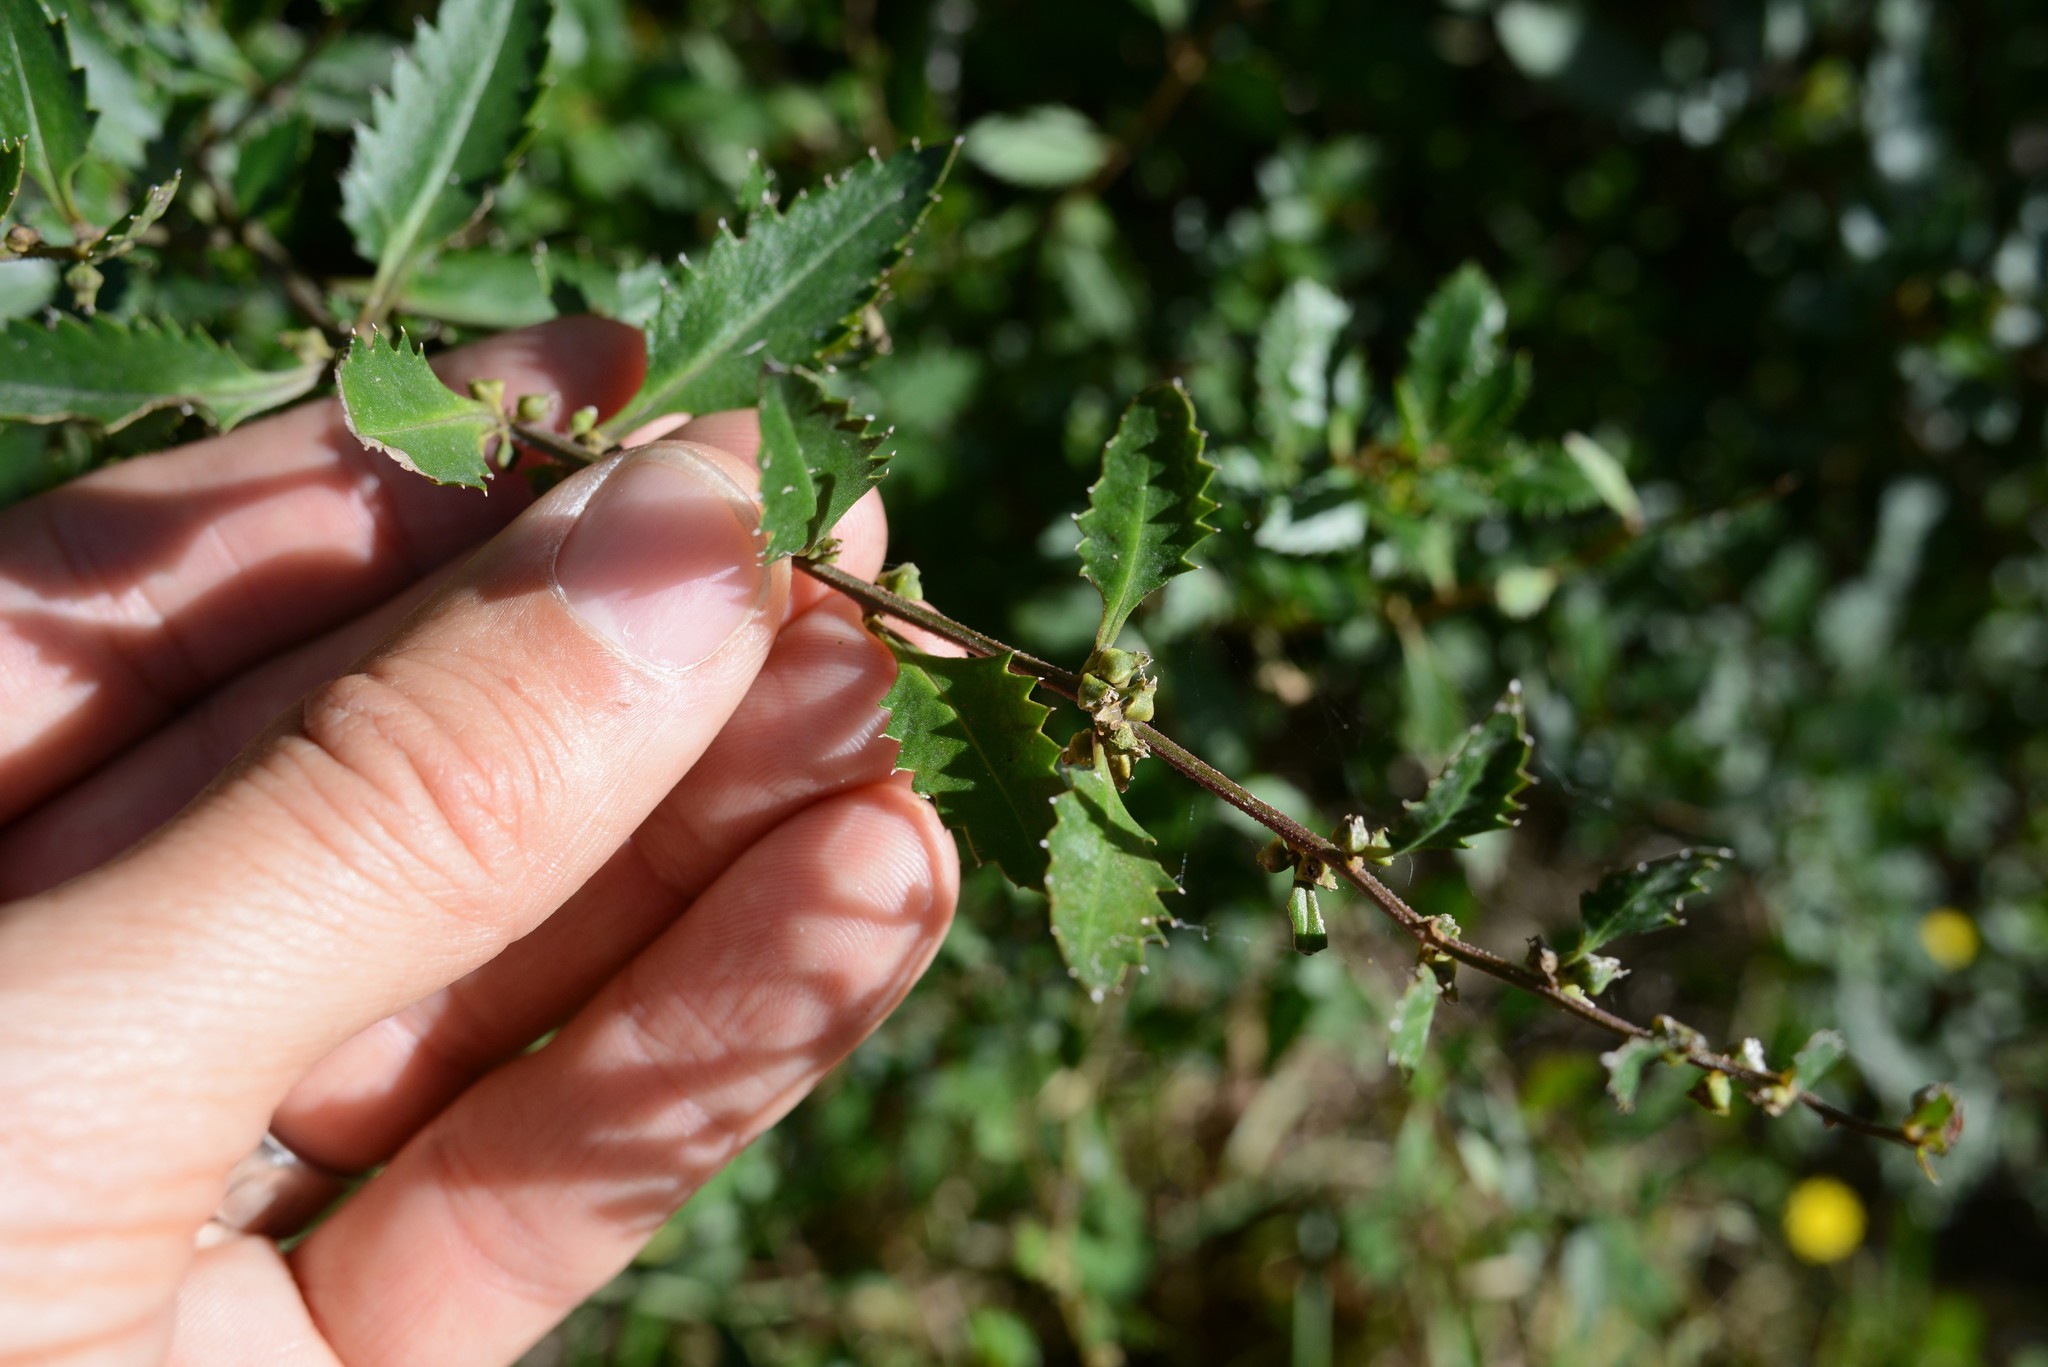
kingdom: Plantae
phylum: Tracheophyta
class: Magnoliopsida
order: Saxifragales
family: Haloragaceae
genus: Haloragis
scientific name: Haloragis erecta
